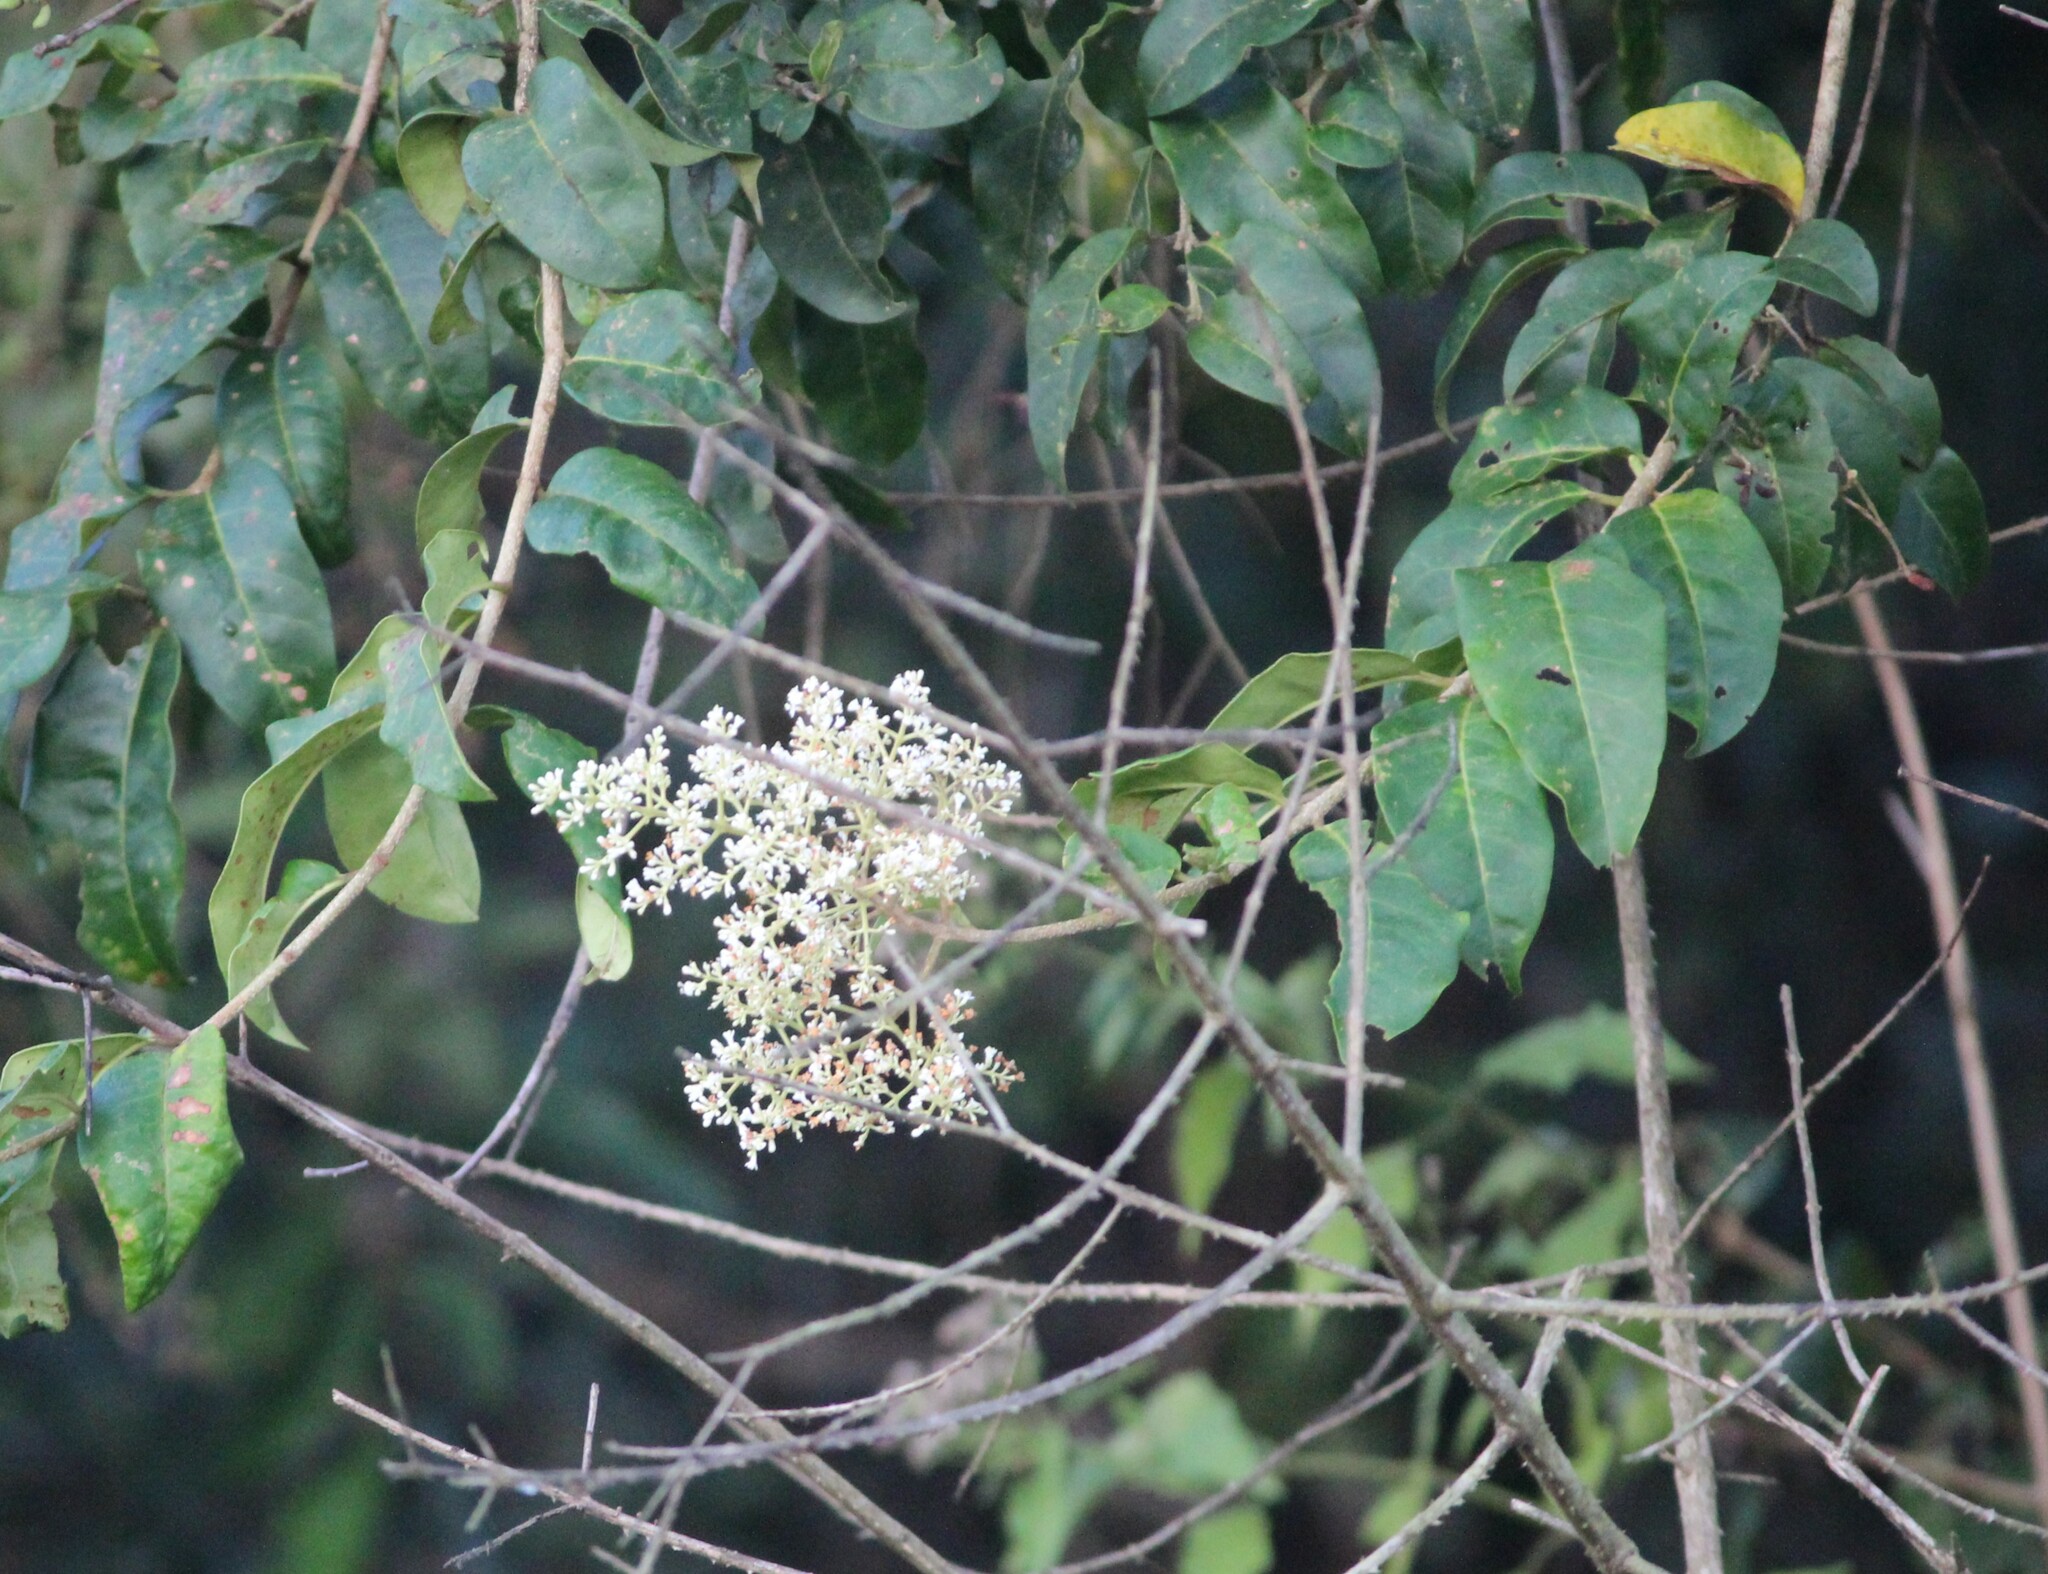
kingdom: Plantae
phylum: Tracheophyta
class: Magnoliopsida
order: Lamiales
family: Oleaceae
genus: Ligustrum
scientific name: Ligustrum robustum
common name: Tree privet
